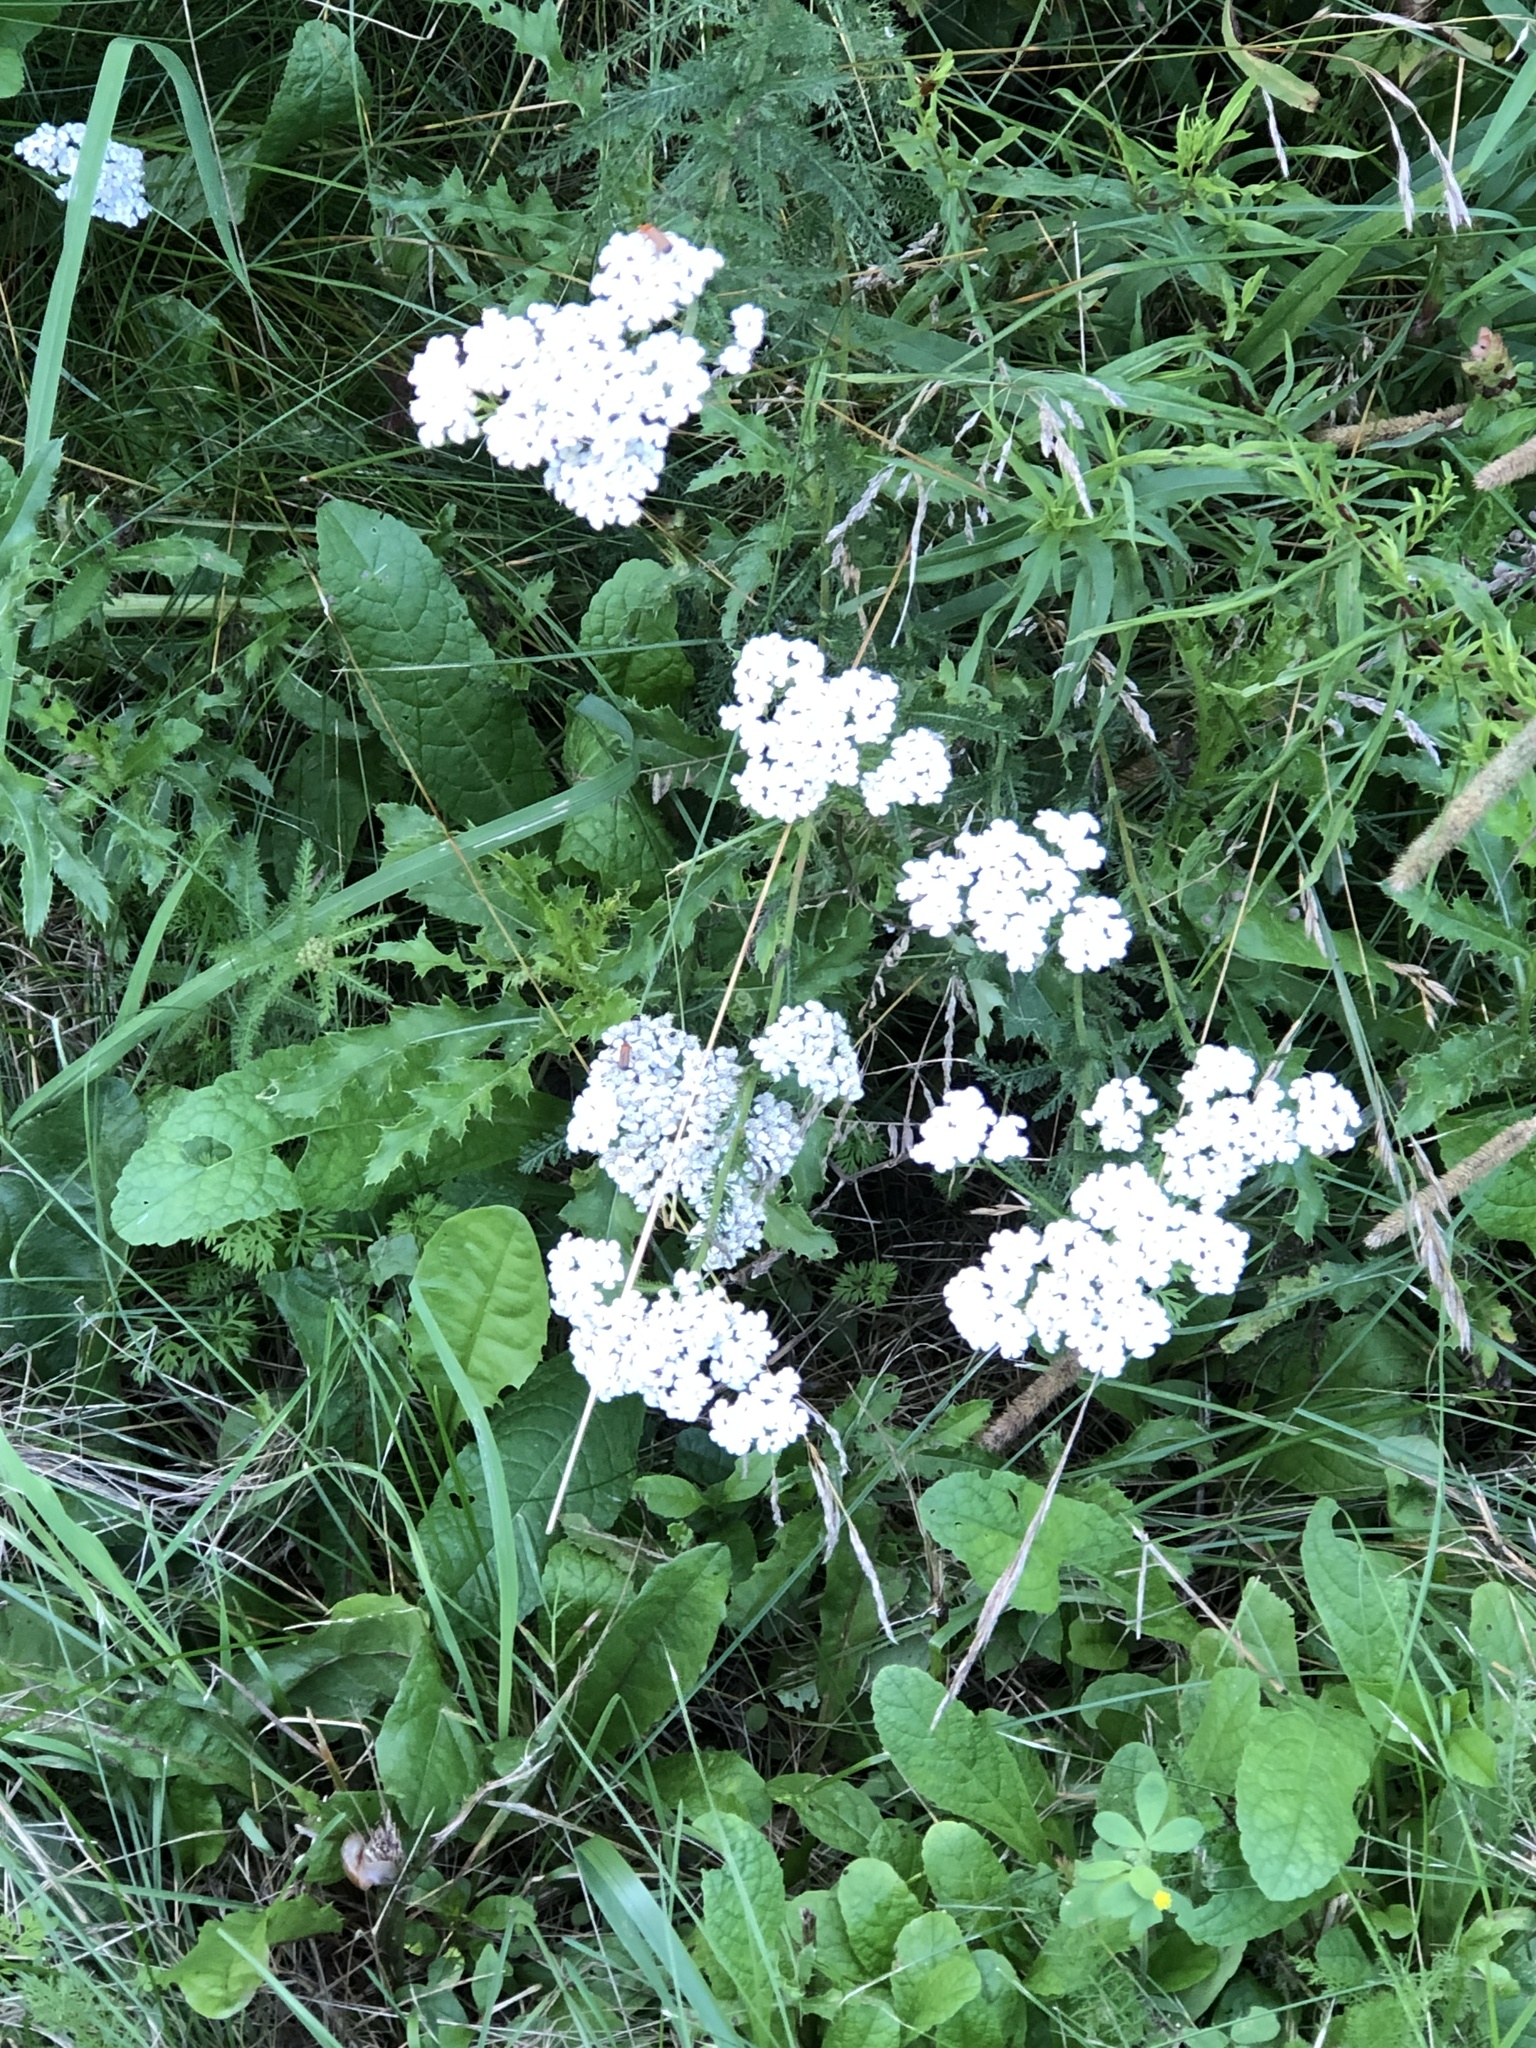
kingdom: Plantae
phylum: Tracheophyta
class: Magnoliopsida
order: Asterales
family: Asteraceae
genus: Achillea
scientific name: Achillea millefolium
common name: Yarrow
